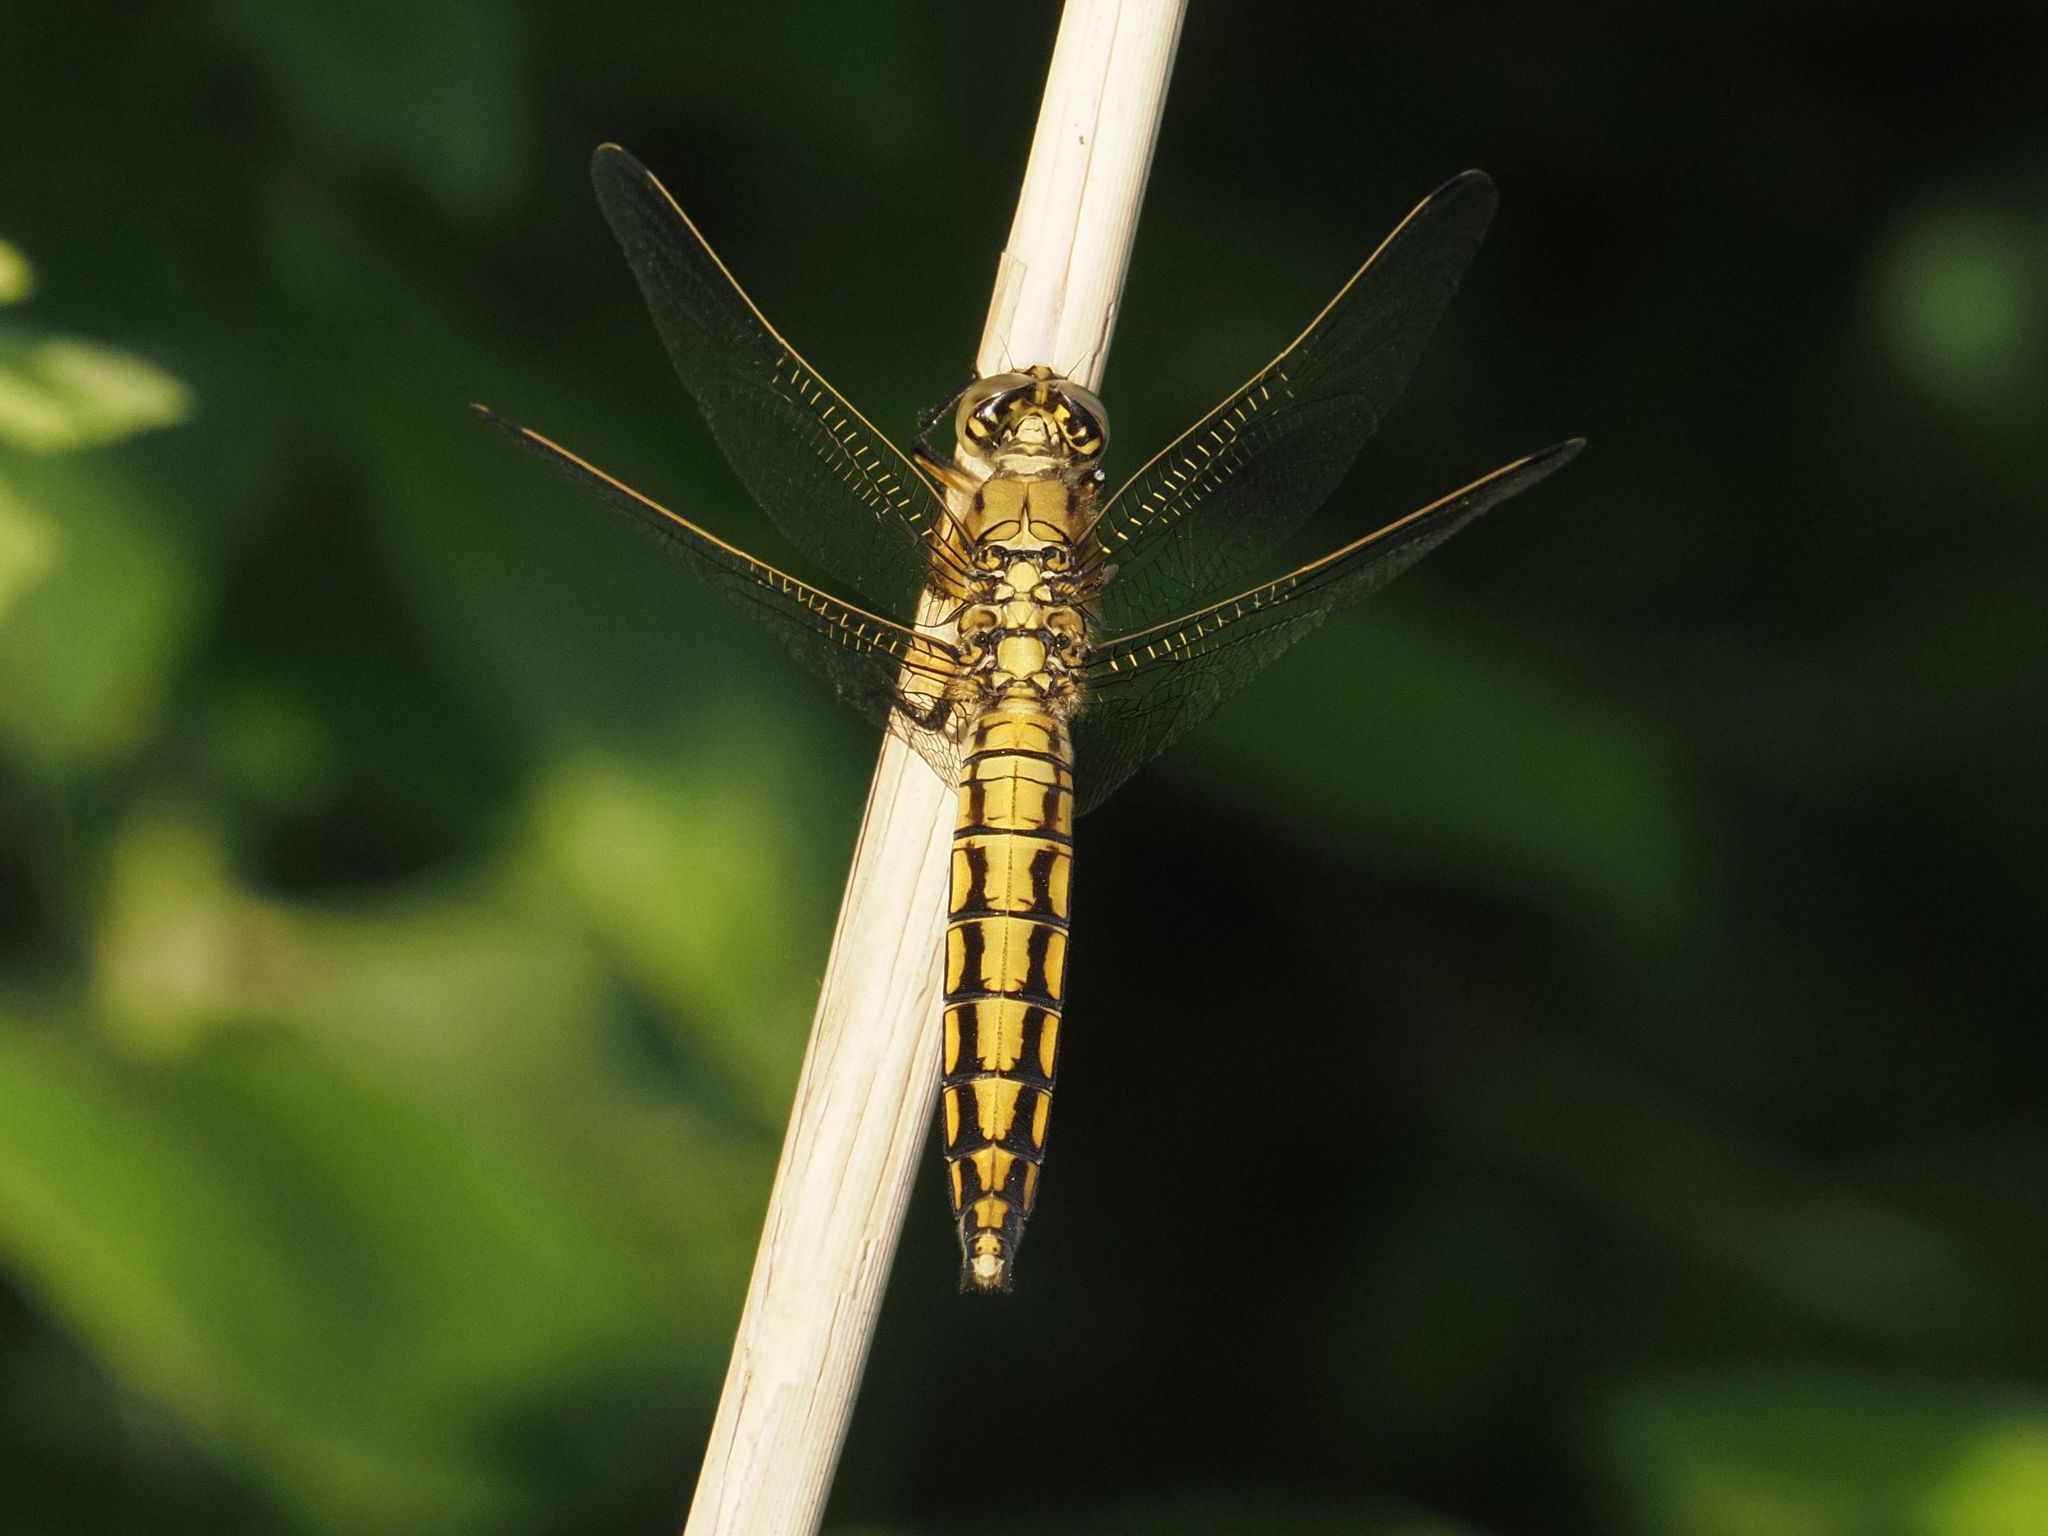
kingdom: Animalia
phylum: Arthropoda
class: Insecta
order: Odonata
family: Libellulidae
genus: Orthetrum
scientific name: Orthetrum cancellatum
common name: Black-tailed skimmer
